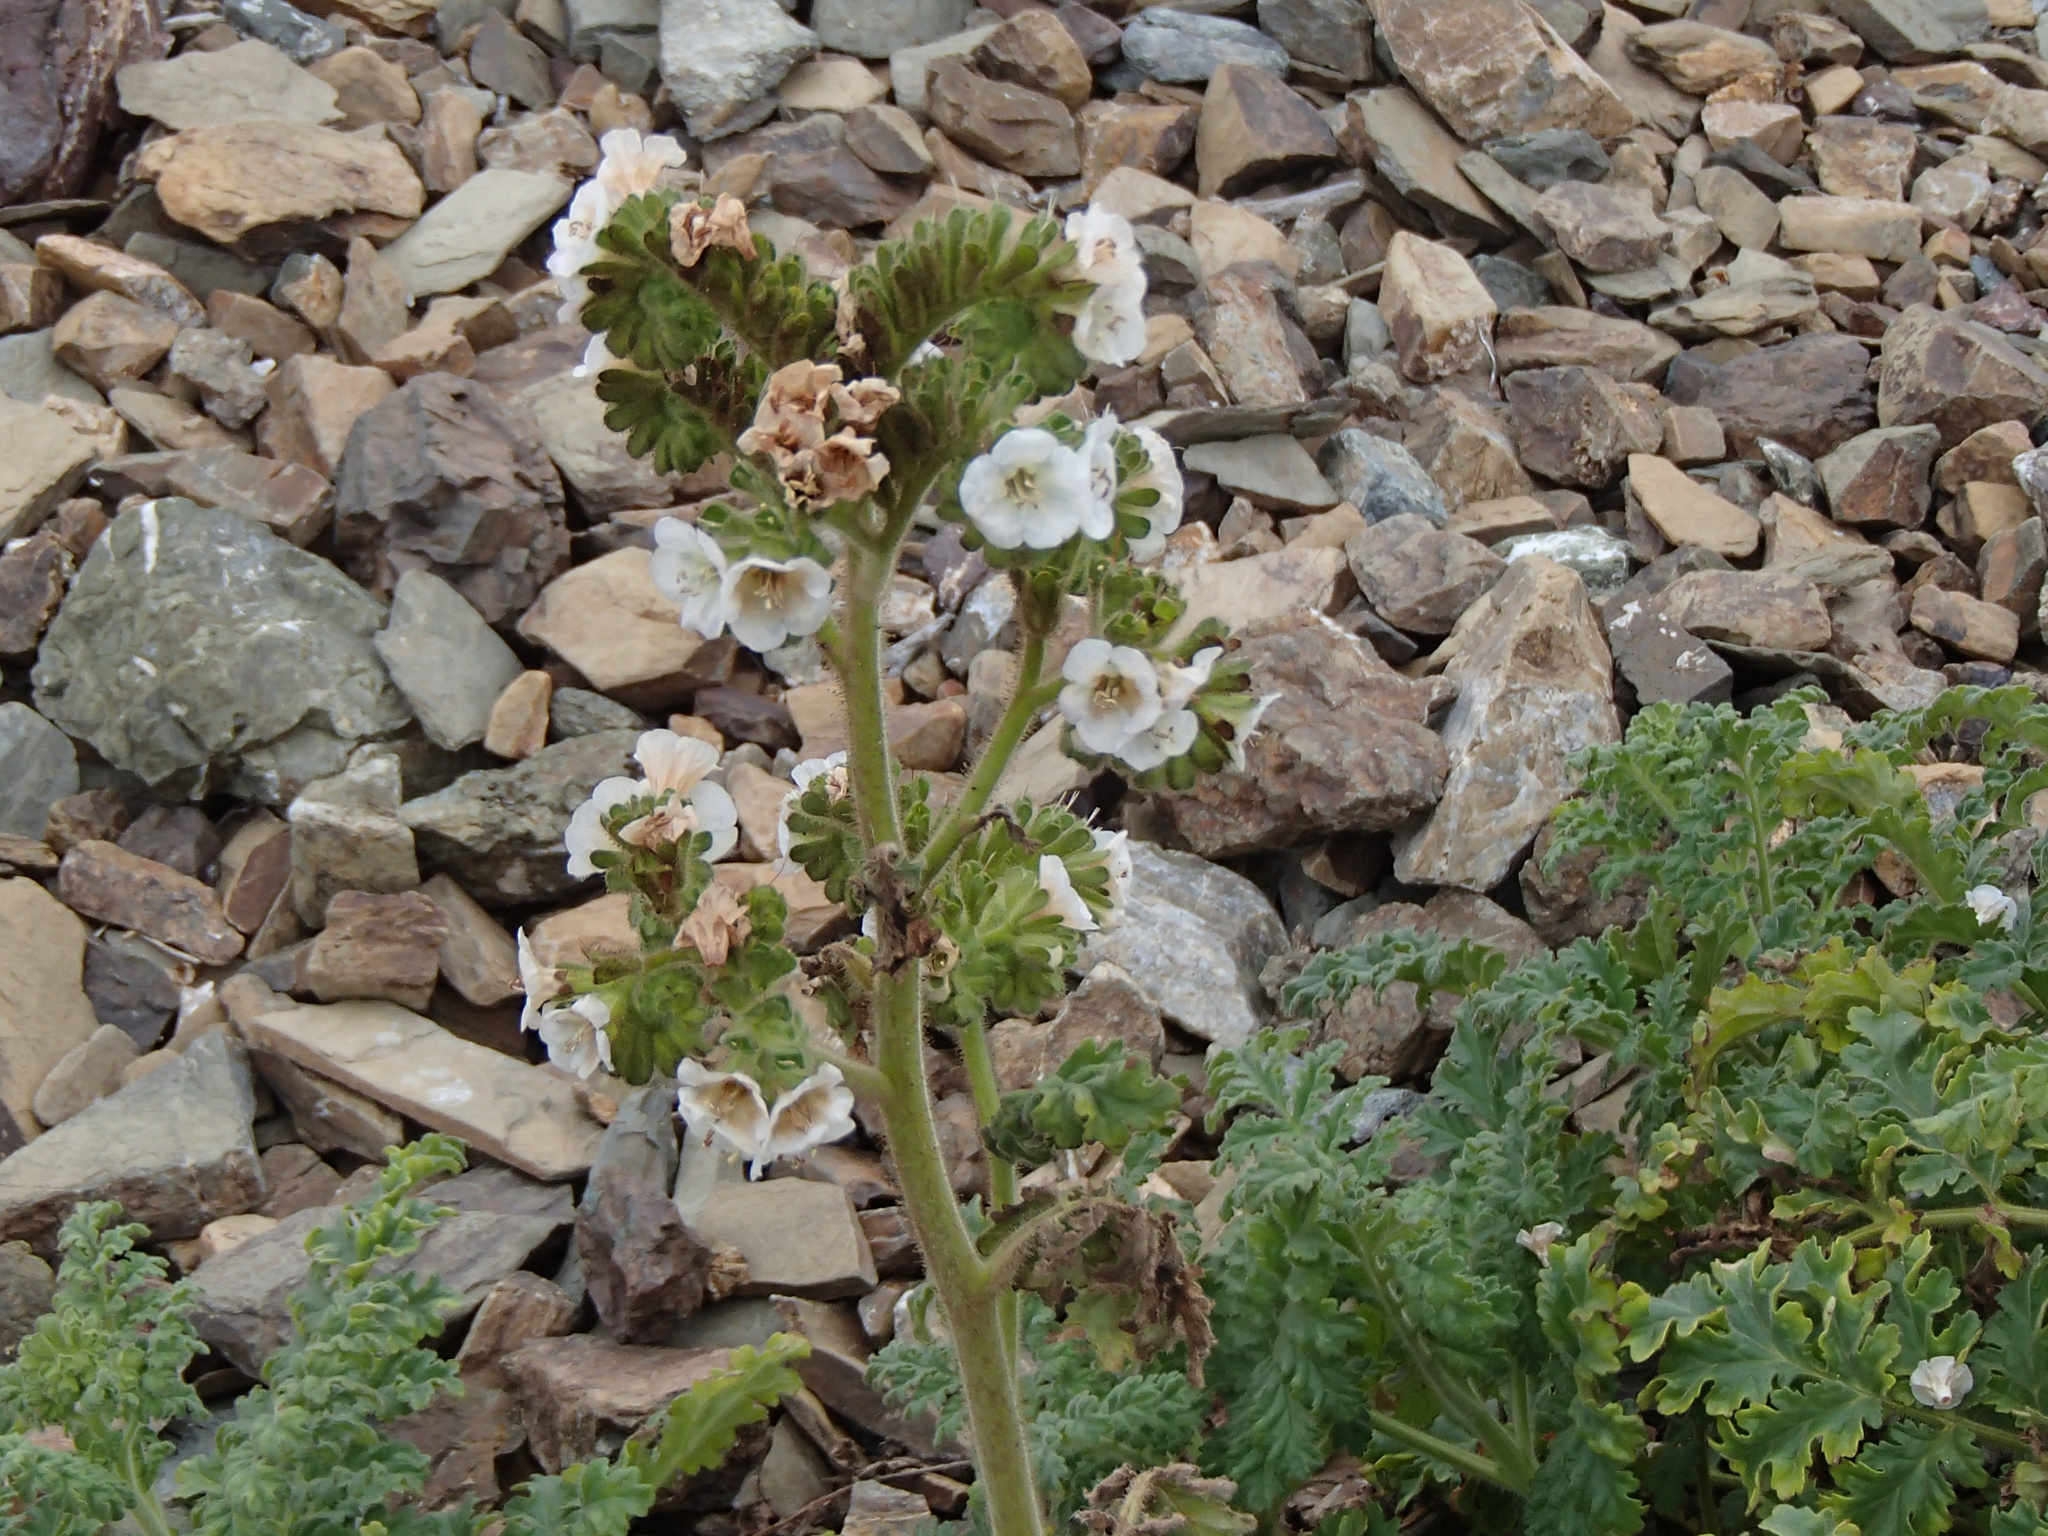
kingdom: Plantae
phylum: Tracheophyta
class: Magnoliopsida
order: Boraginales
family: Hydrophyllaceae
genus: Phacelia
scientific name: Phacelia ixodes
